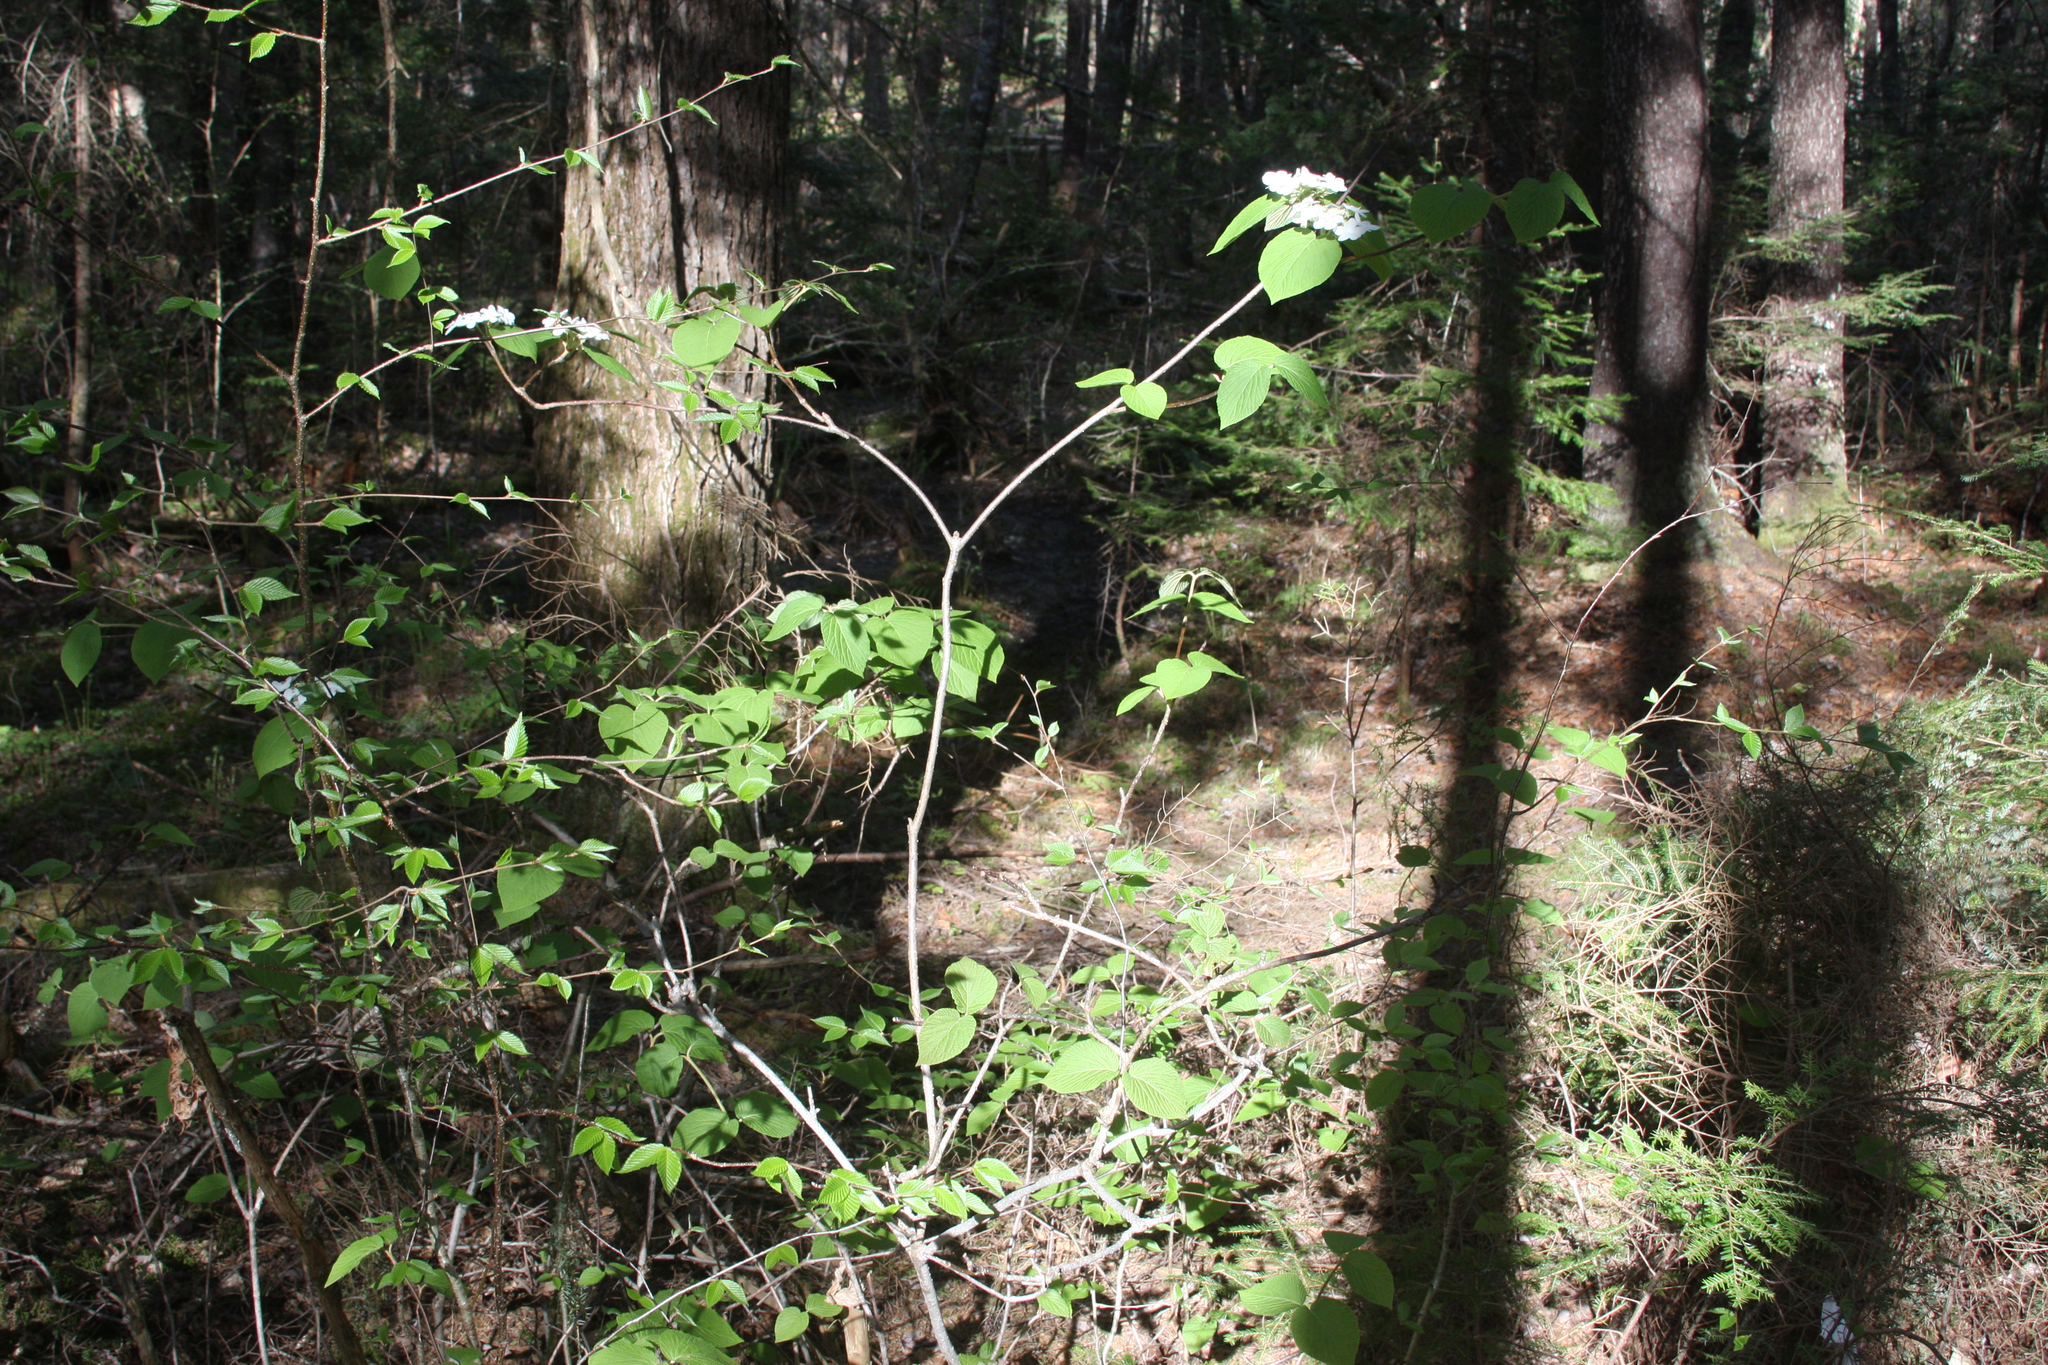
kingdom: Plantae
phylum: Tracheophyta
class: Magnoliopsida
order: Dipsacales
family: Viburnaceae
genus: Viburnum
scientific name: Viburnum lantanoides
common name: Hobblebush
